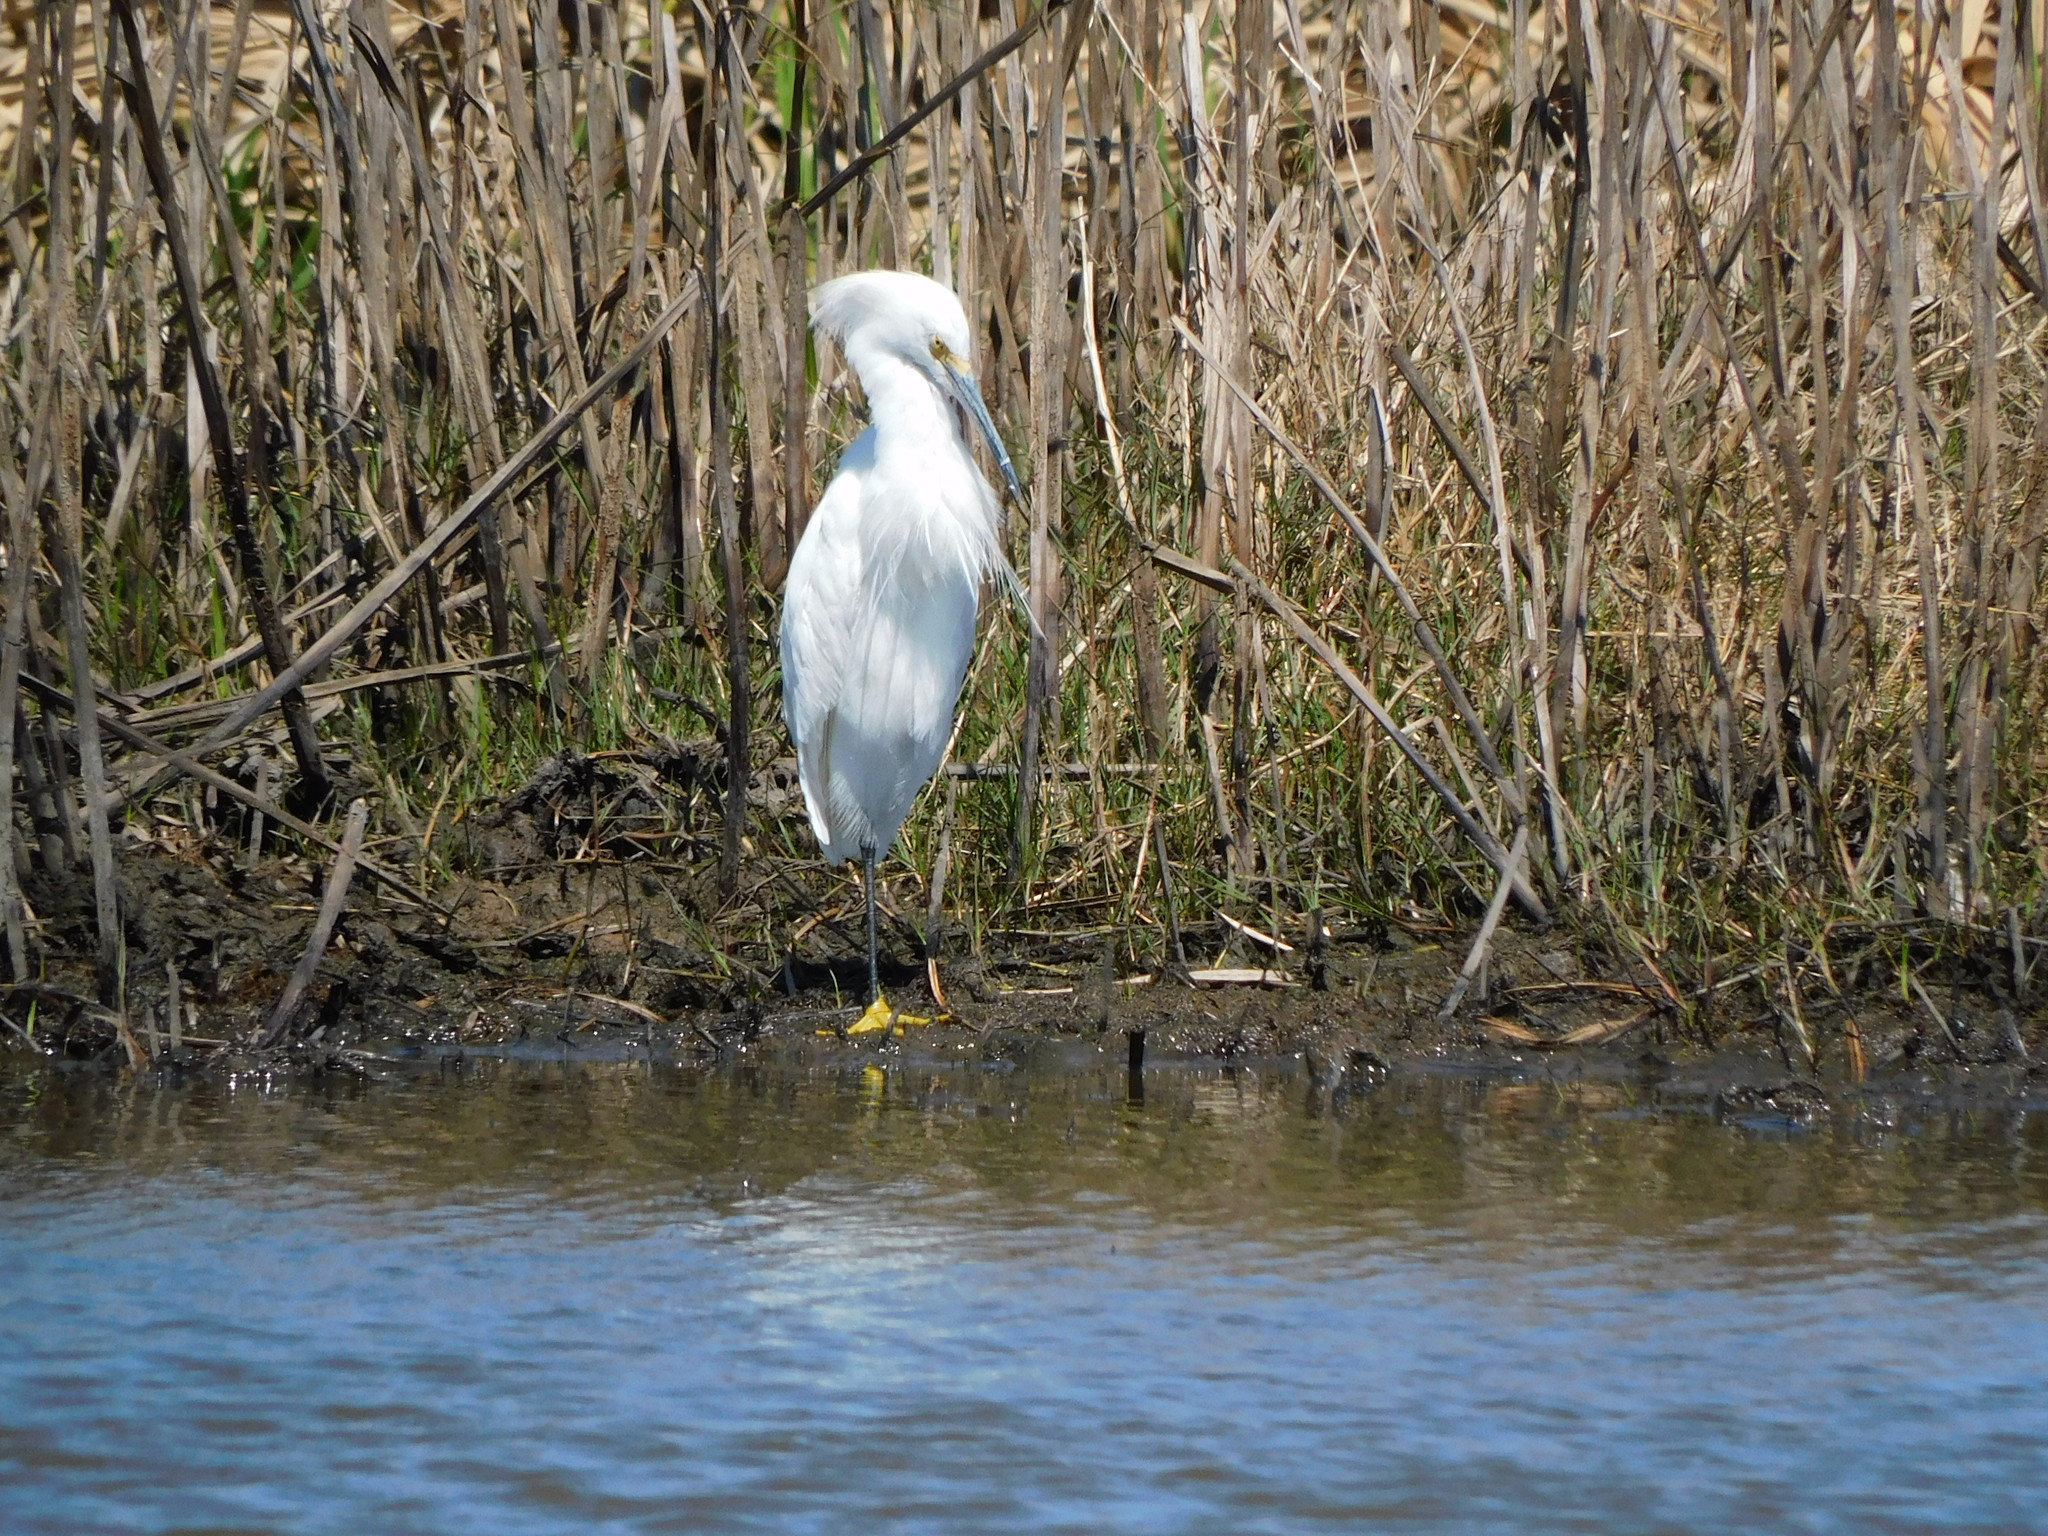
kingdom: Animalia
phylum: Chordata
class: Aves
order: Pelecaniformes
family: Ardeidae
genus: Egretta
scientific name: Egretta thula
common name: Snowy egret
